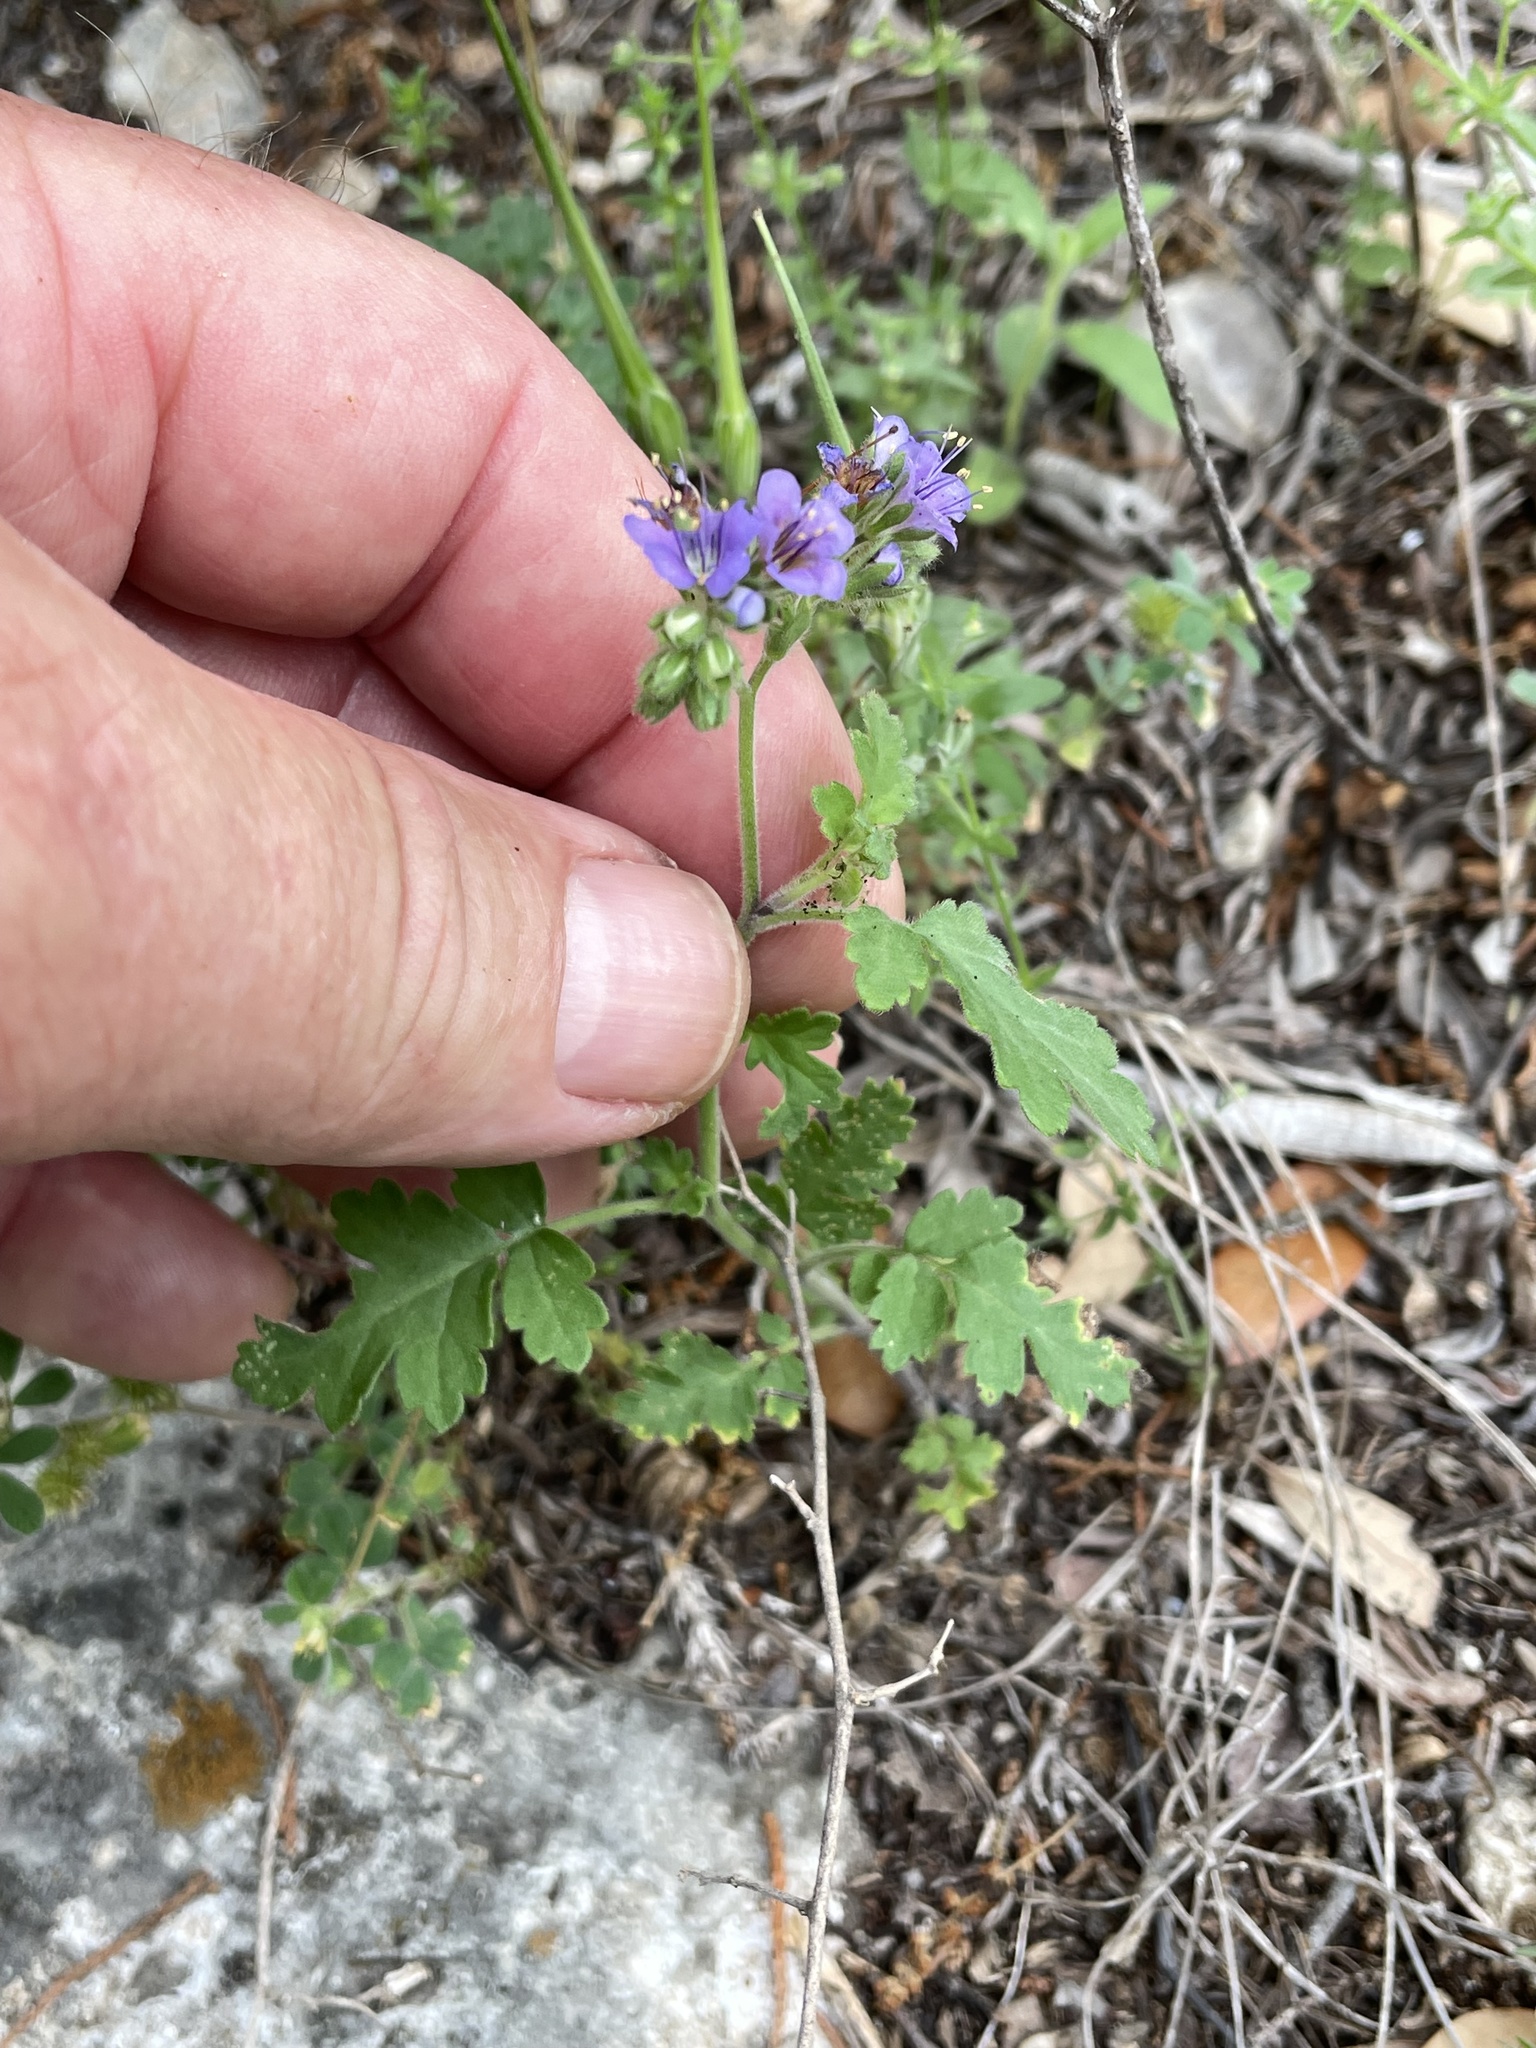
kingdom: Plantae
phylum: Tracheophyta
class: Magnoliopsida
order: Boraginales
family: Hydrophyllaceae
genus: Phacelia
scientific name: Phacelia congesta
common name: Blue curls
